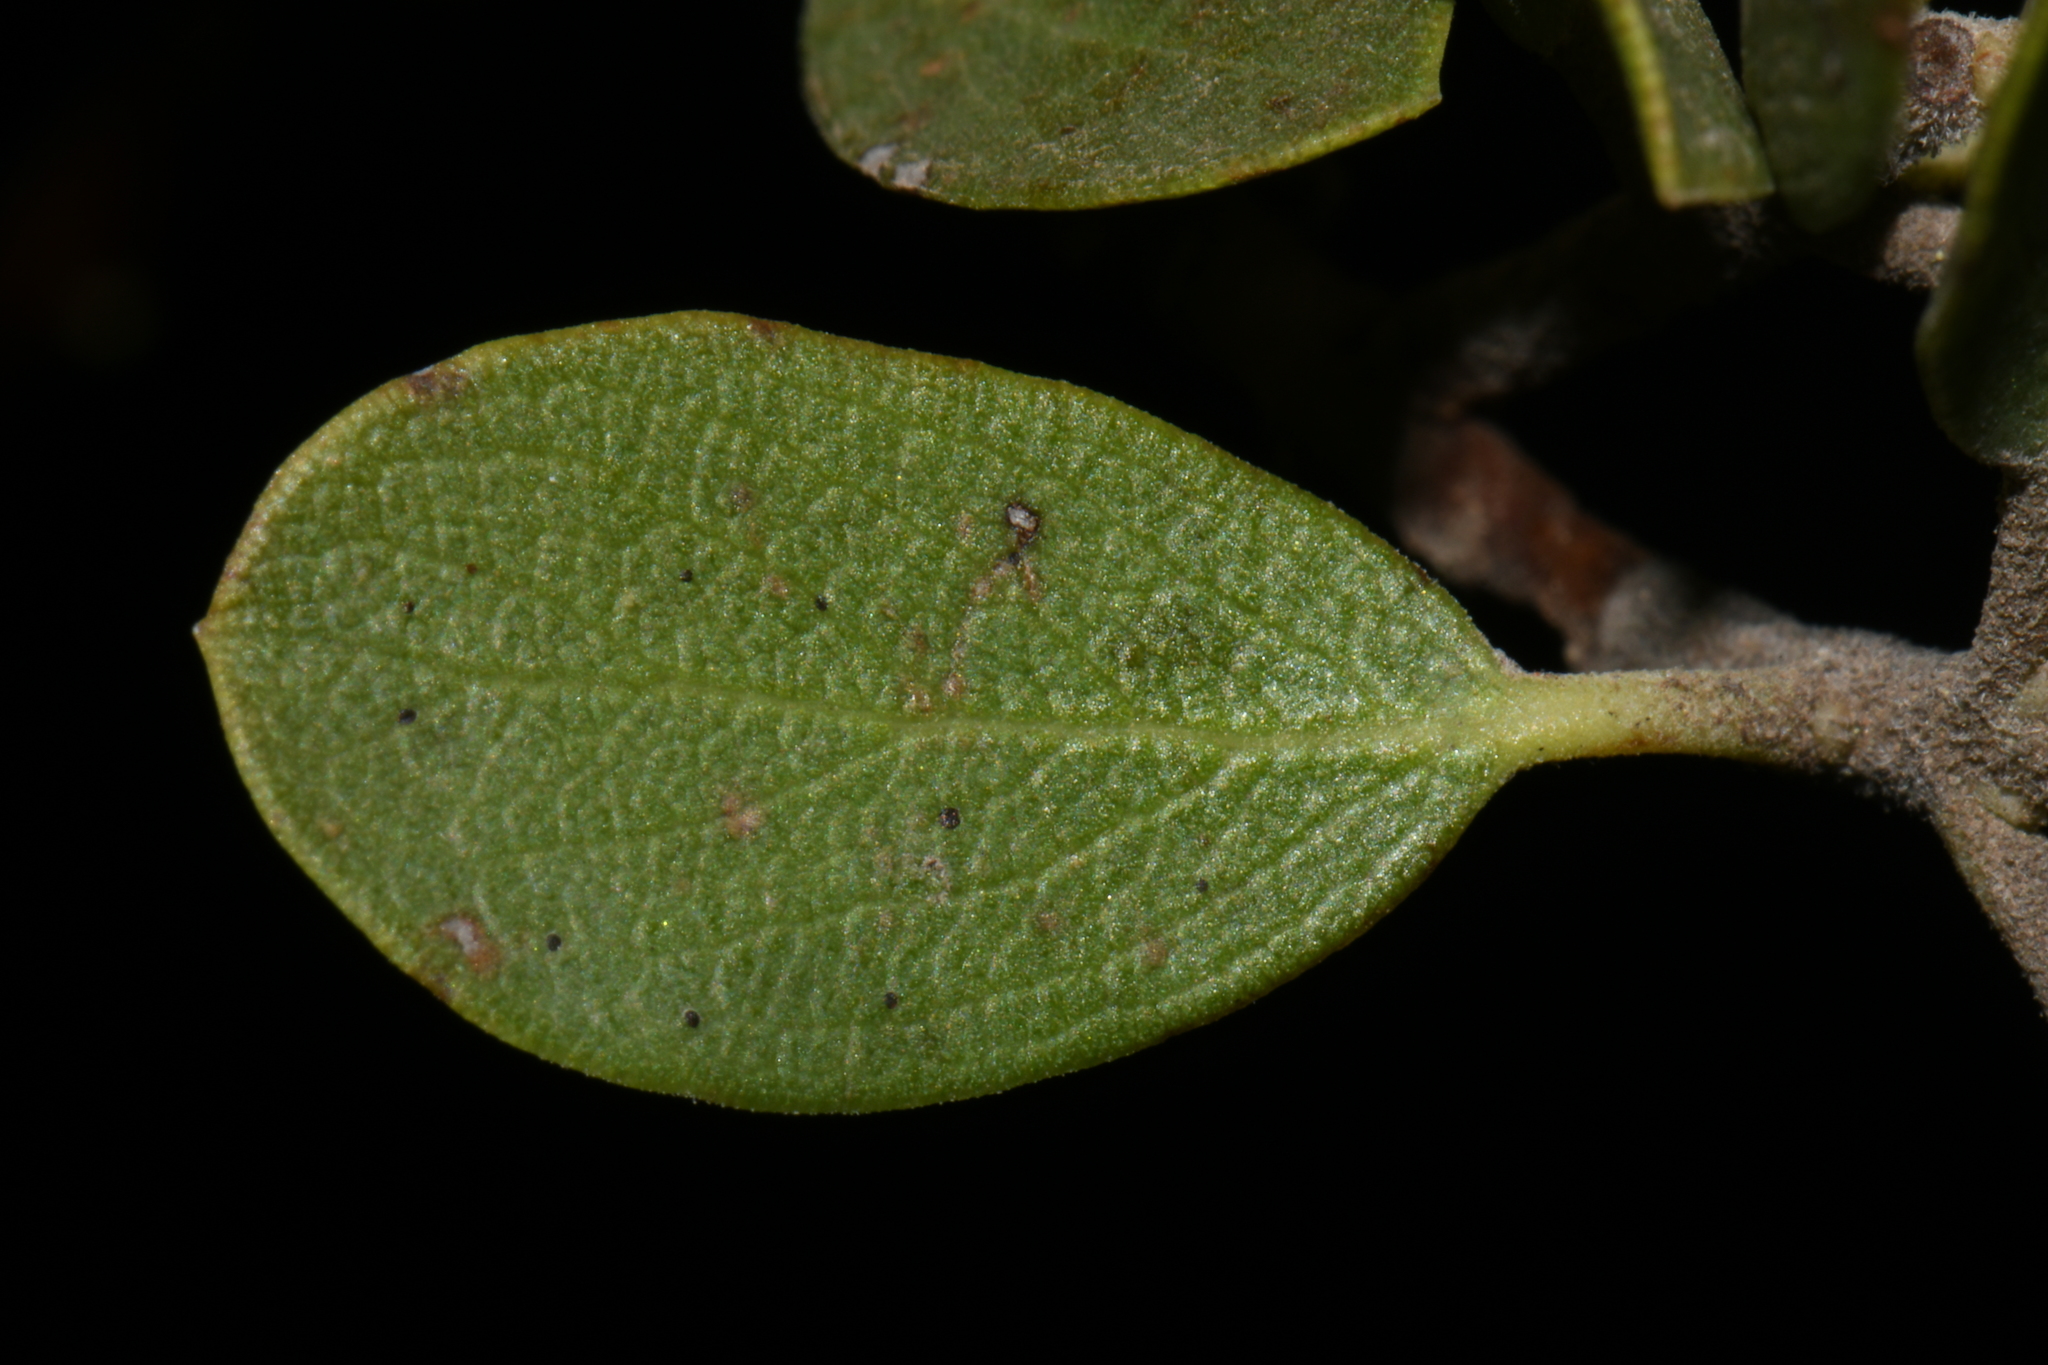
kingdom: Plantae
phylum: Tracheophyta
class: Magnoliopsida
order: Ericales
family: Ericaceae
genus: Arctostaphylos
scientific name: Arctostaphylos nevadensis
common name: Pinemat manzanita
